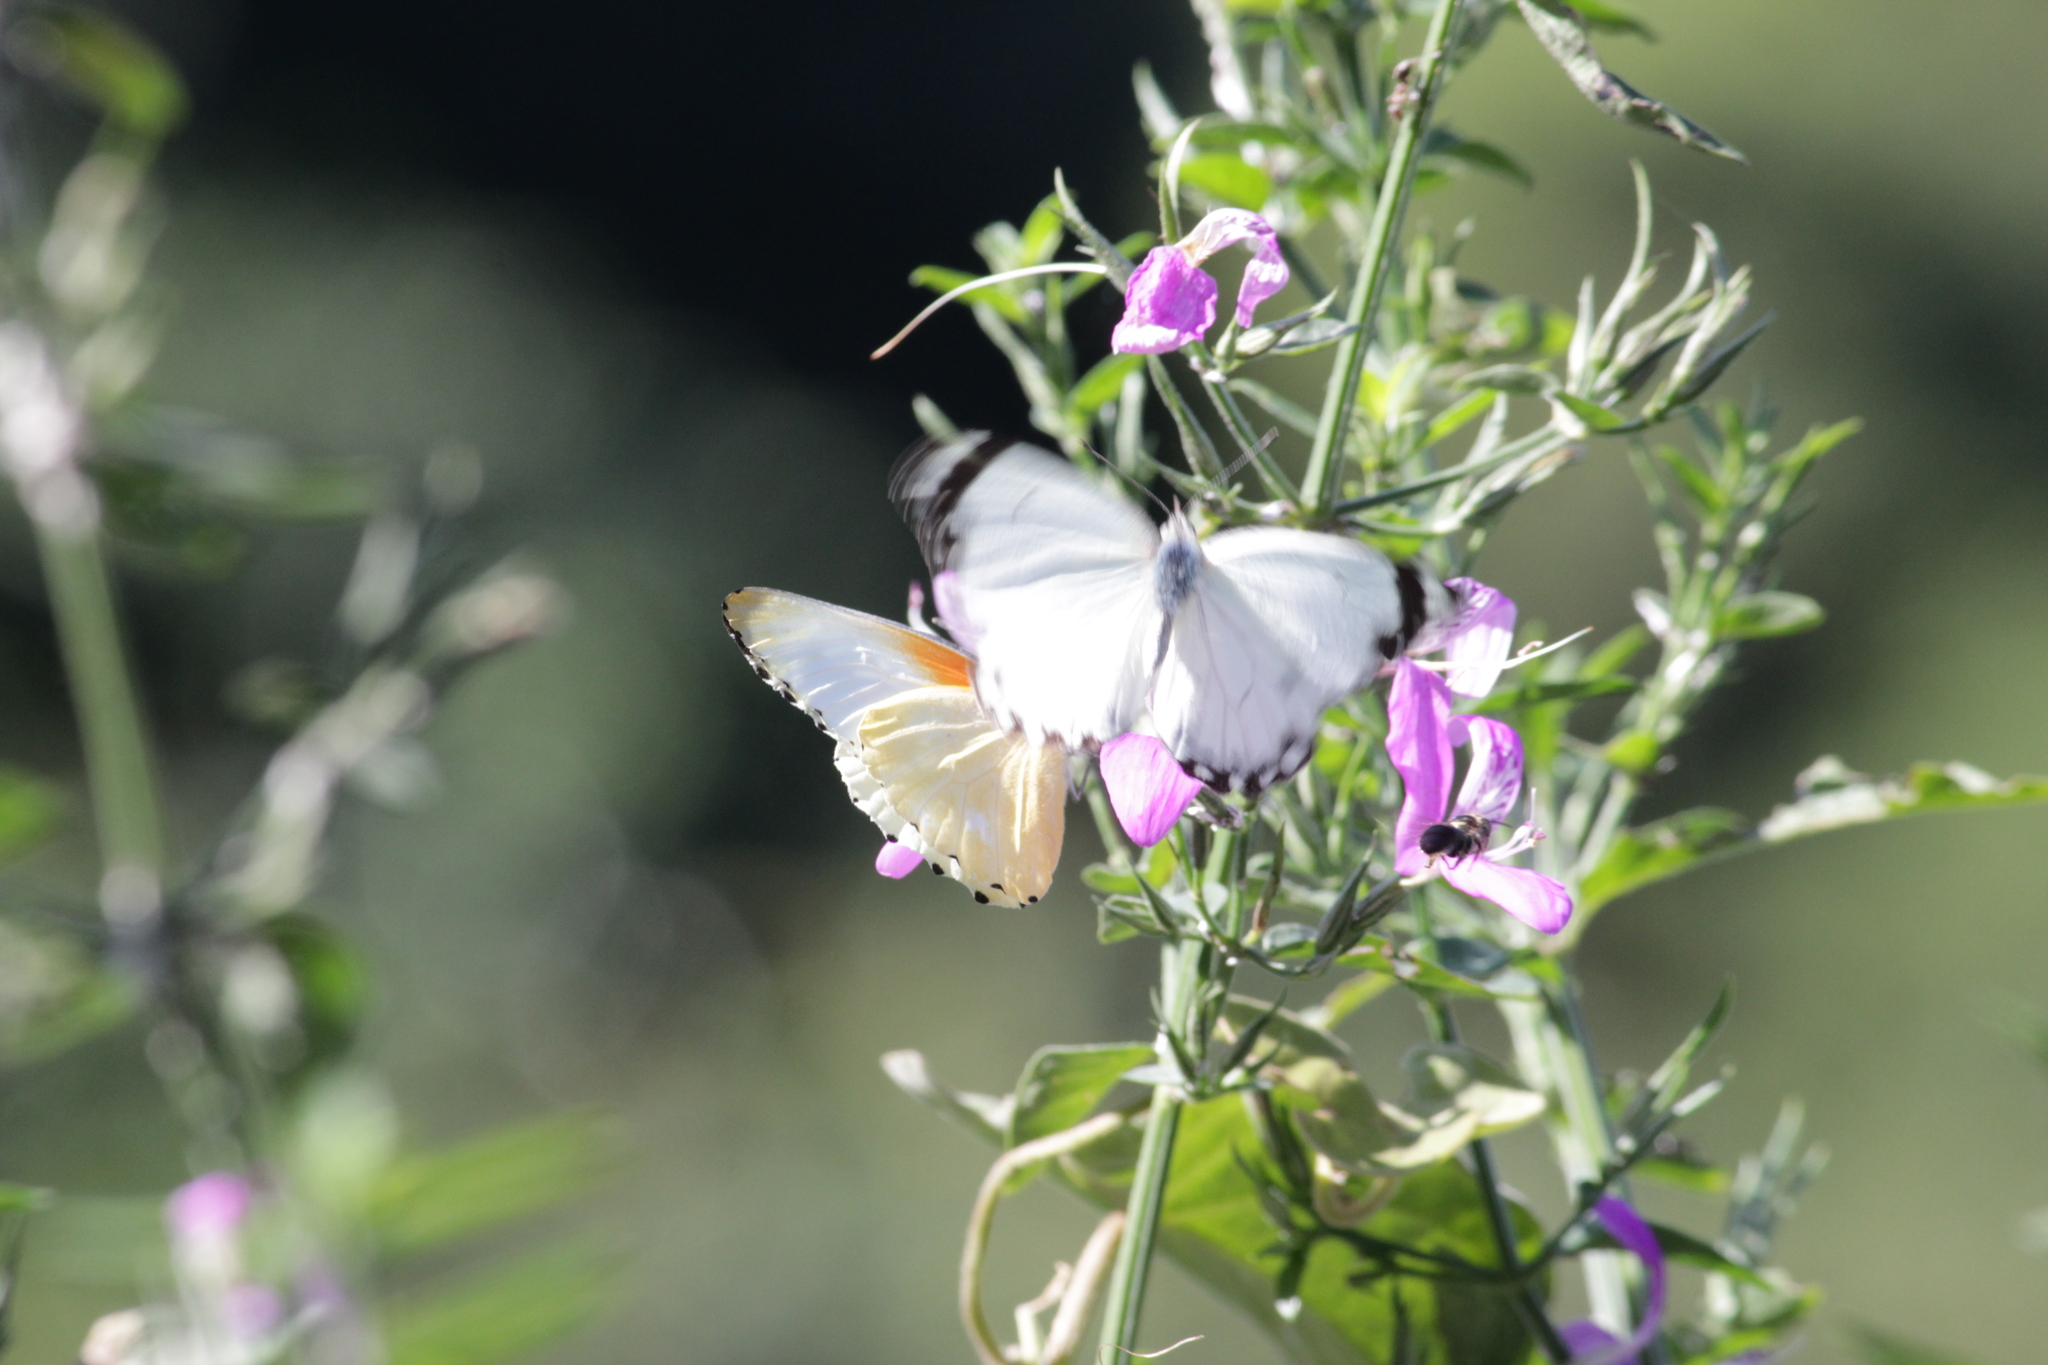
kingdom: Animalia
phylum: Arthropoda
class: Insecta
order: Lepidoptera
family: Pieridae
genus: Mylothris
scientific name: Mylothris agathina
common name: Eastern dotted border
